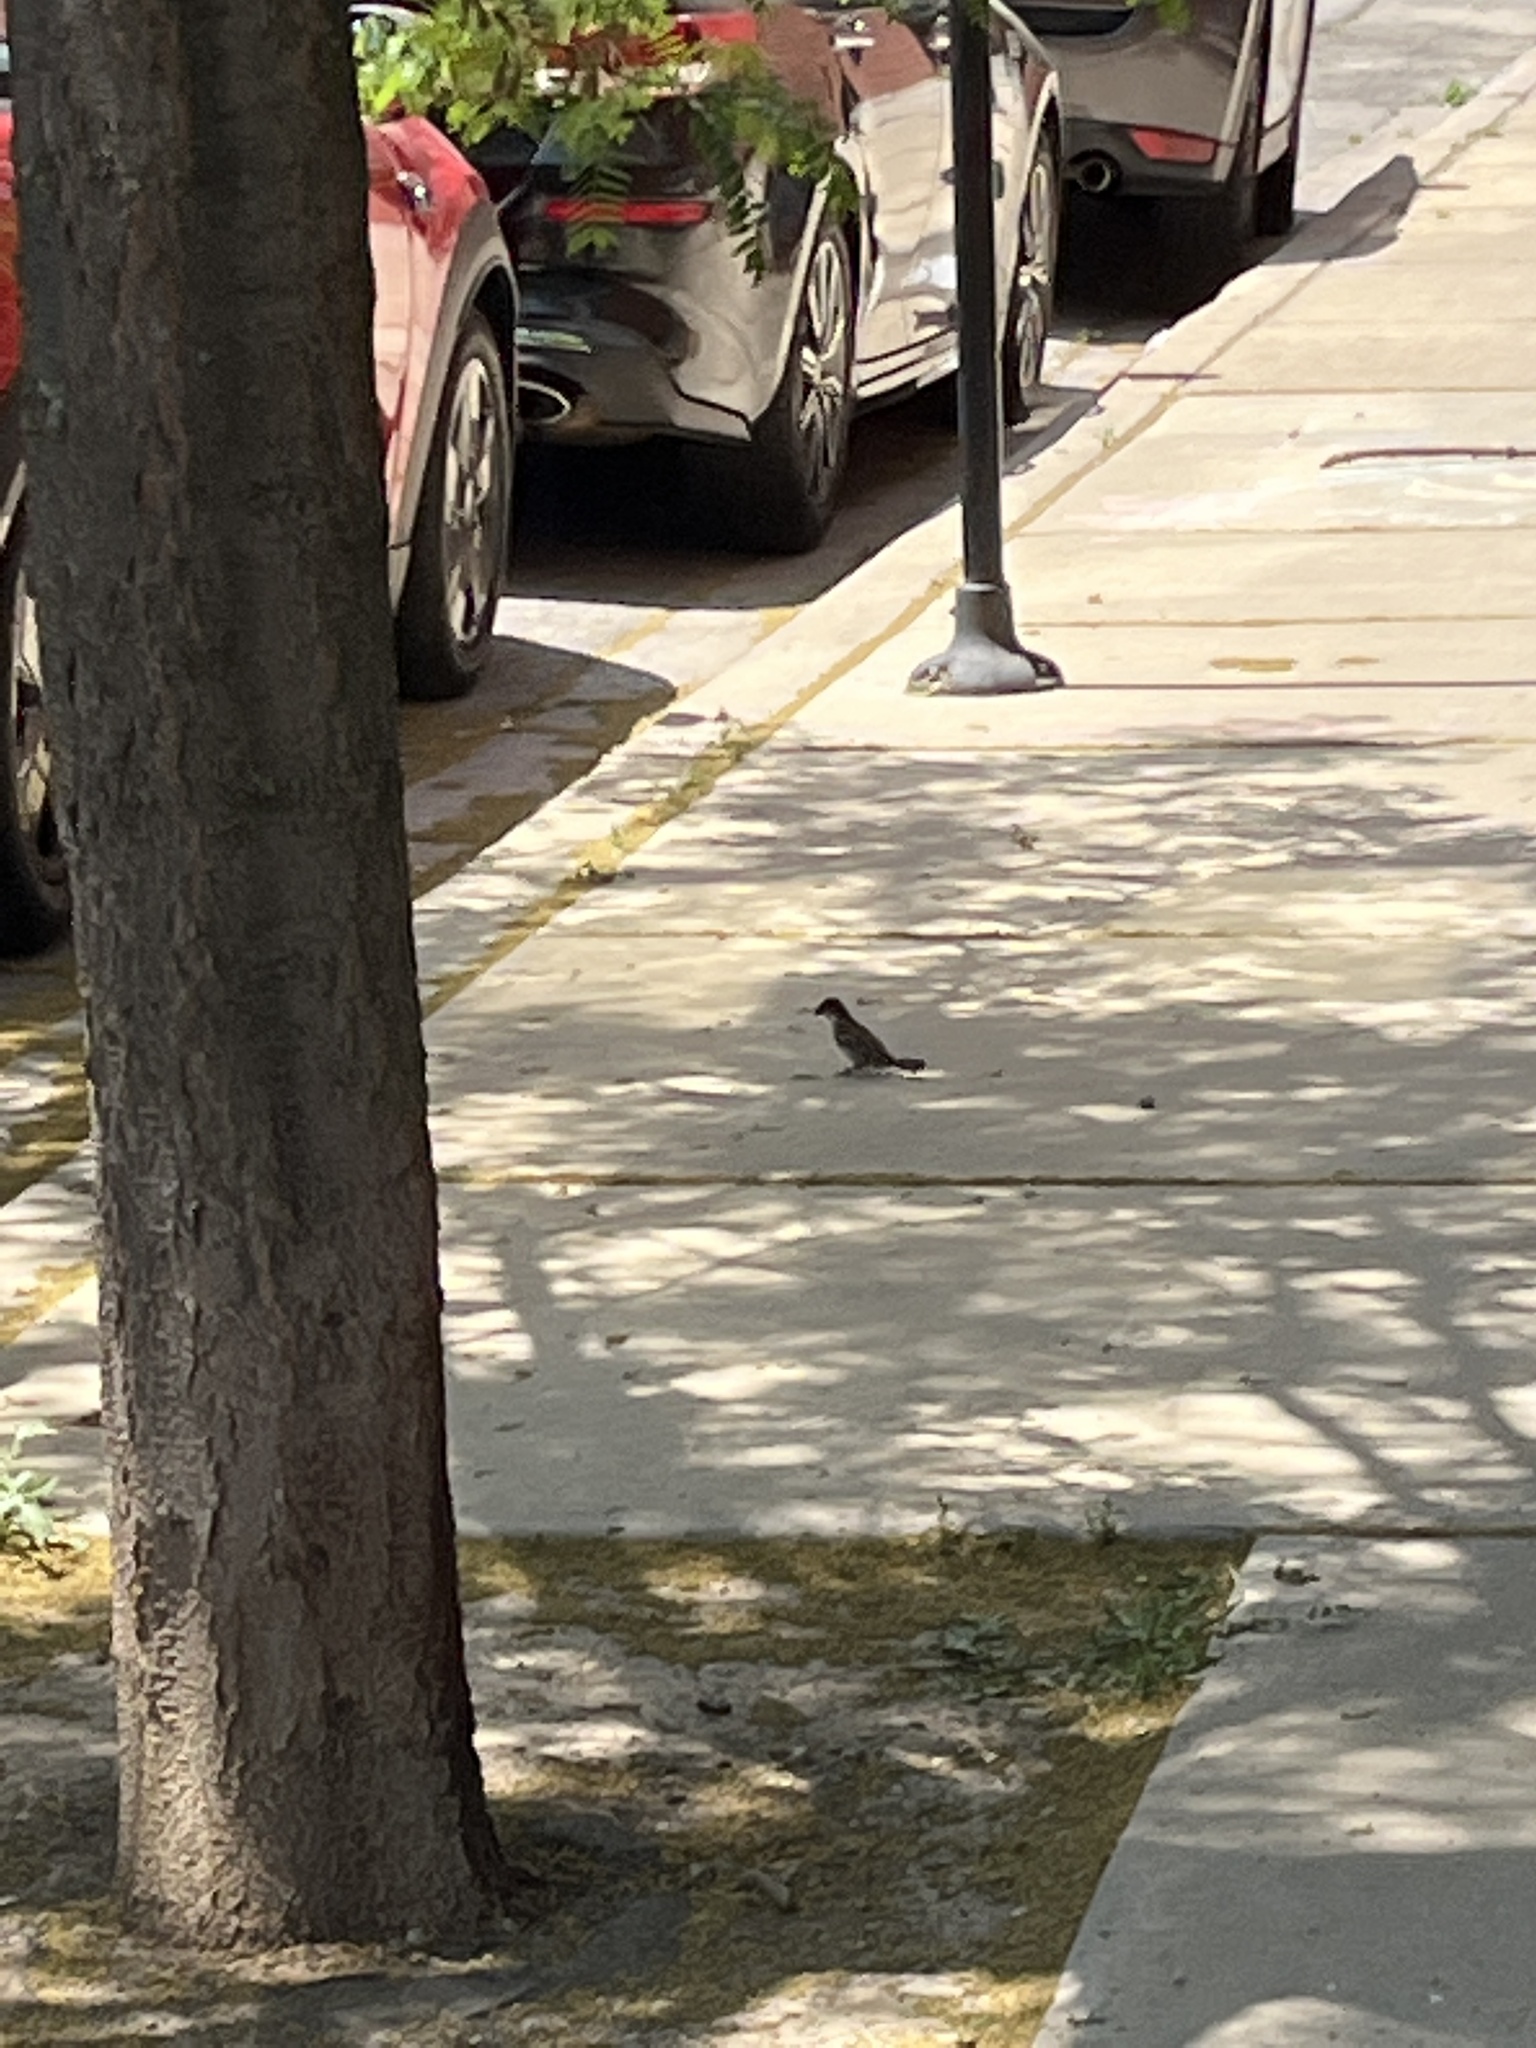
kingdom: Animalia
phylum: Chordata
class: Aves
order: Passeriformes
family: Passeridae
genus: Passer
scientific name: Passer domesticus
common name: House sparrow
